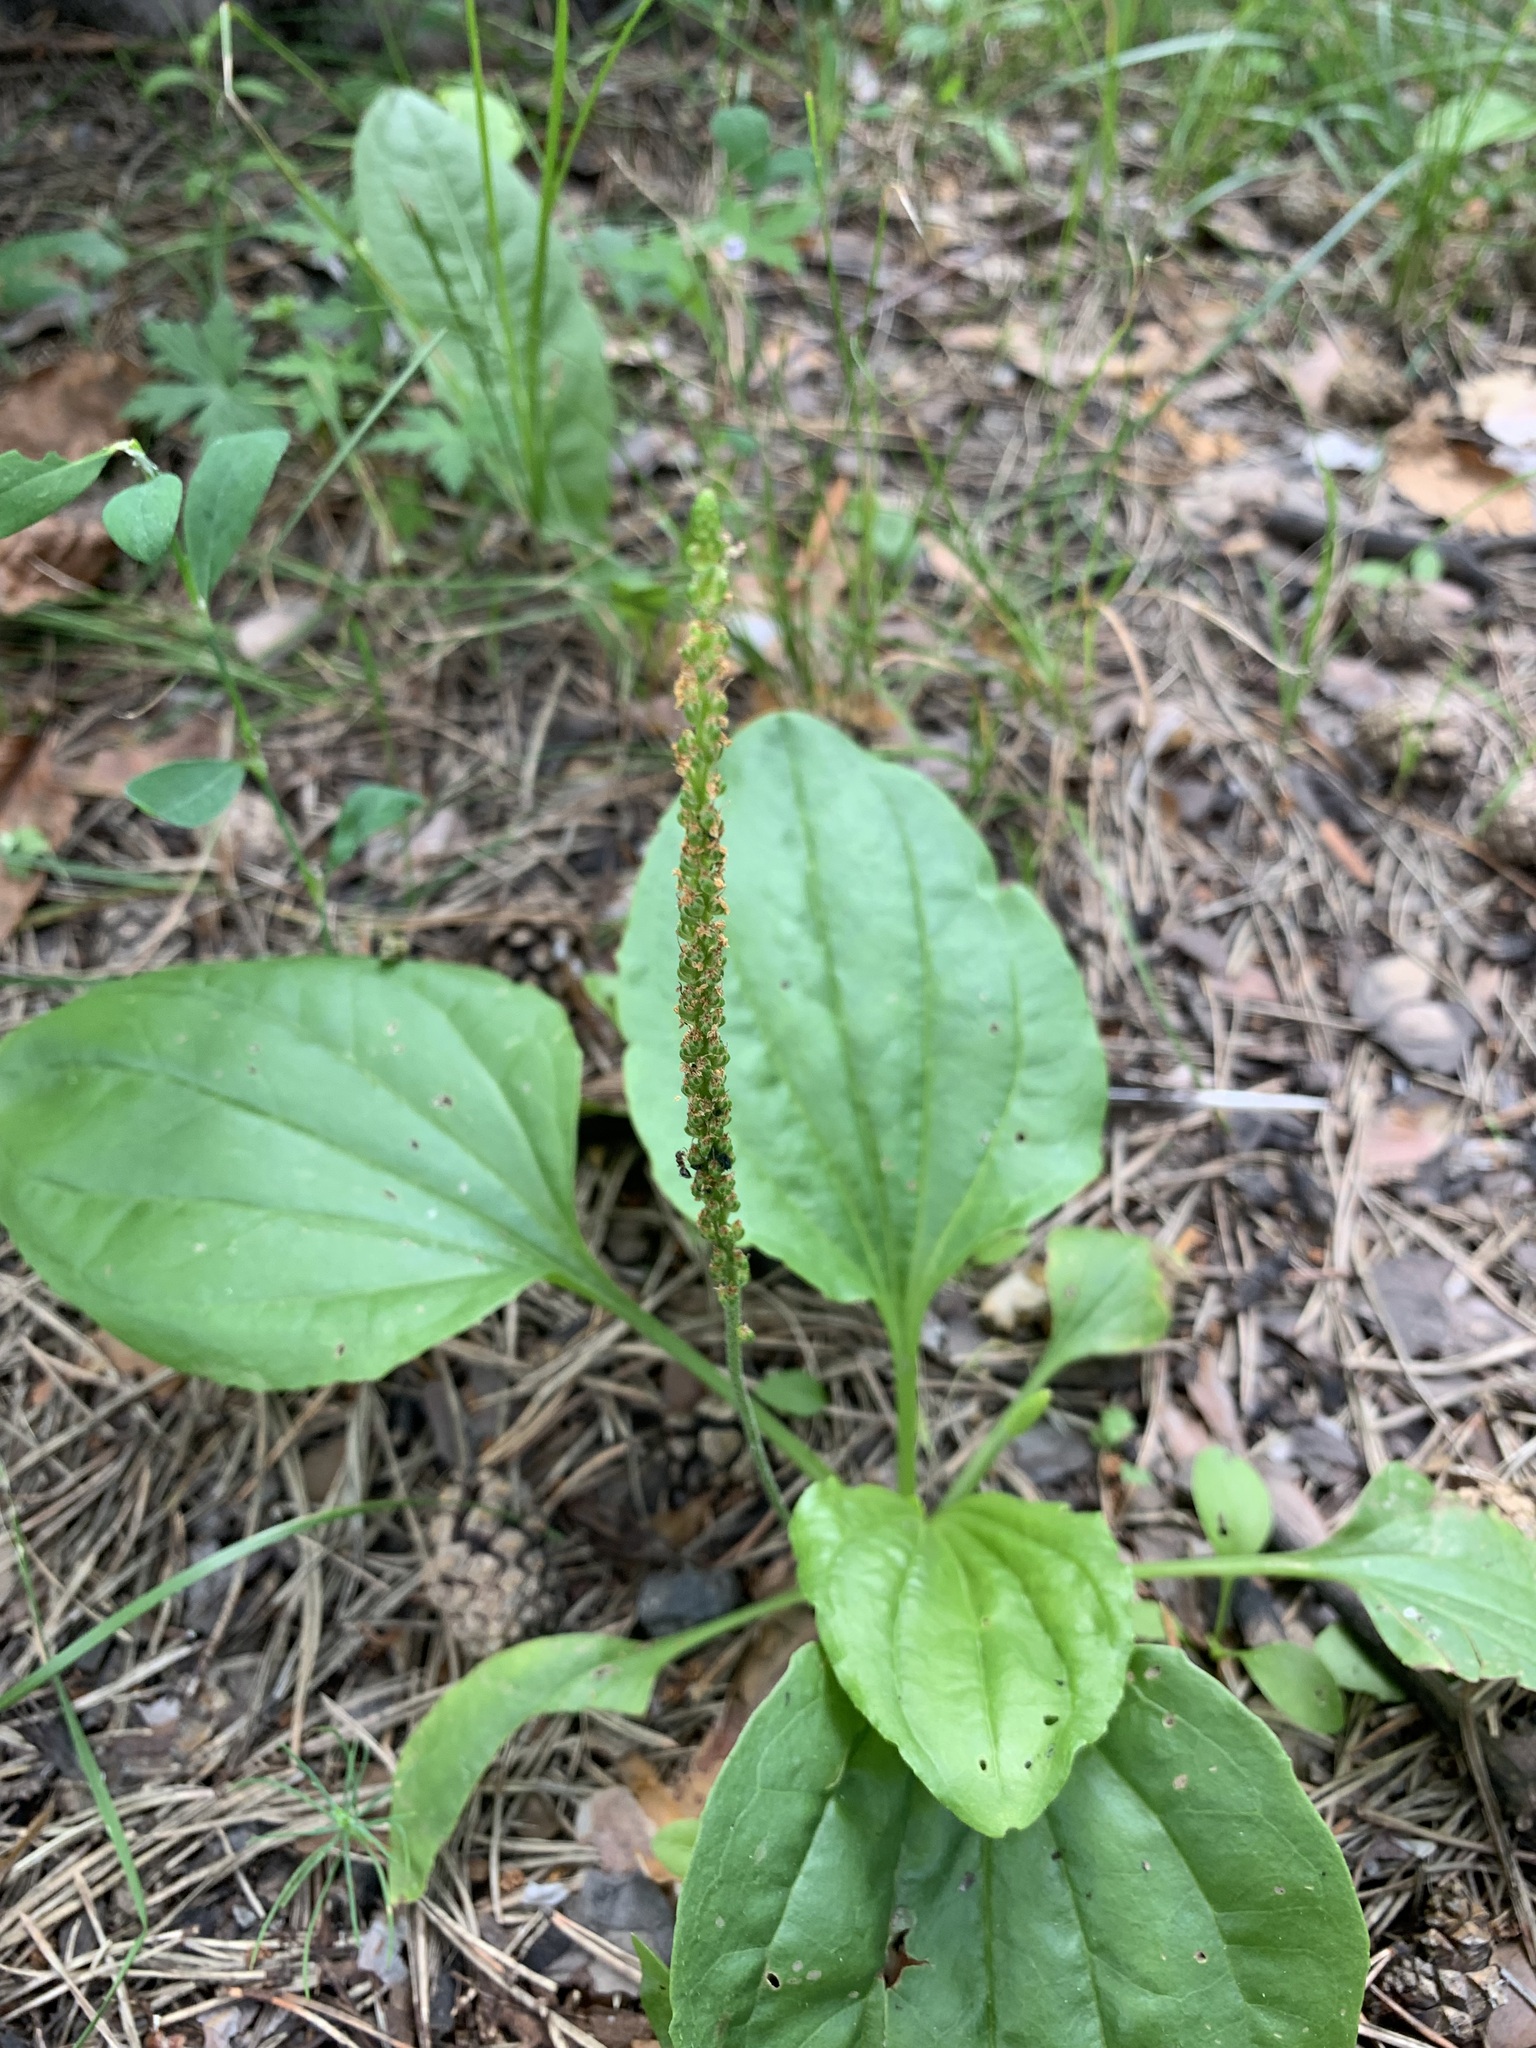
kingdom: Plantae
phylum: Tracheophyta
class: Magnoliopsida
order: Lamiales
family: Plantaginaceae
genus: Plantago
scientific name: Plantago major
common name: Common plantain
